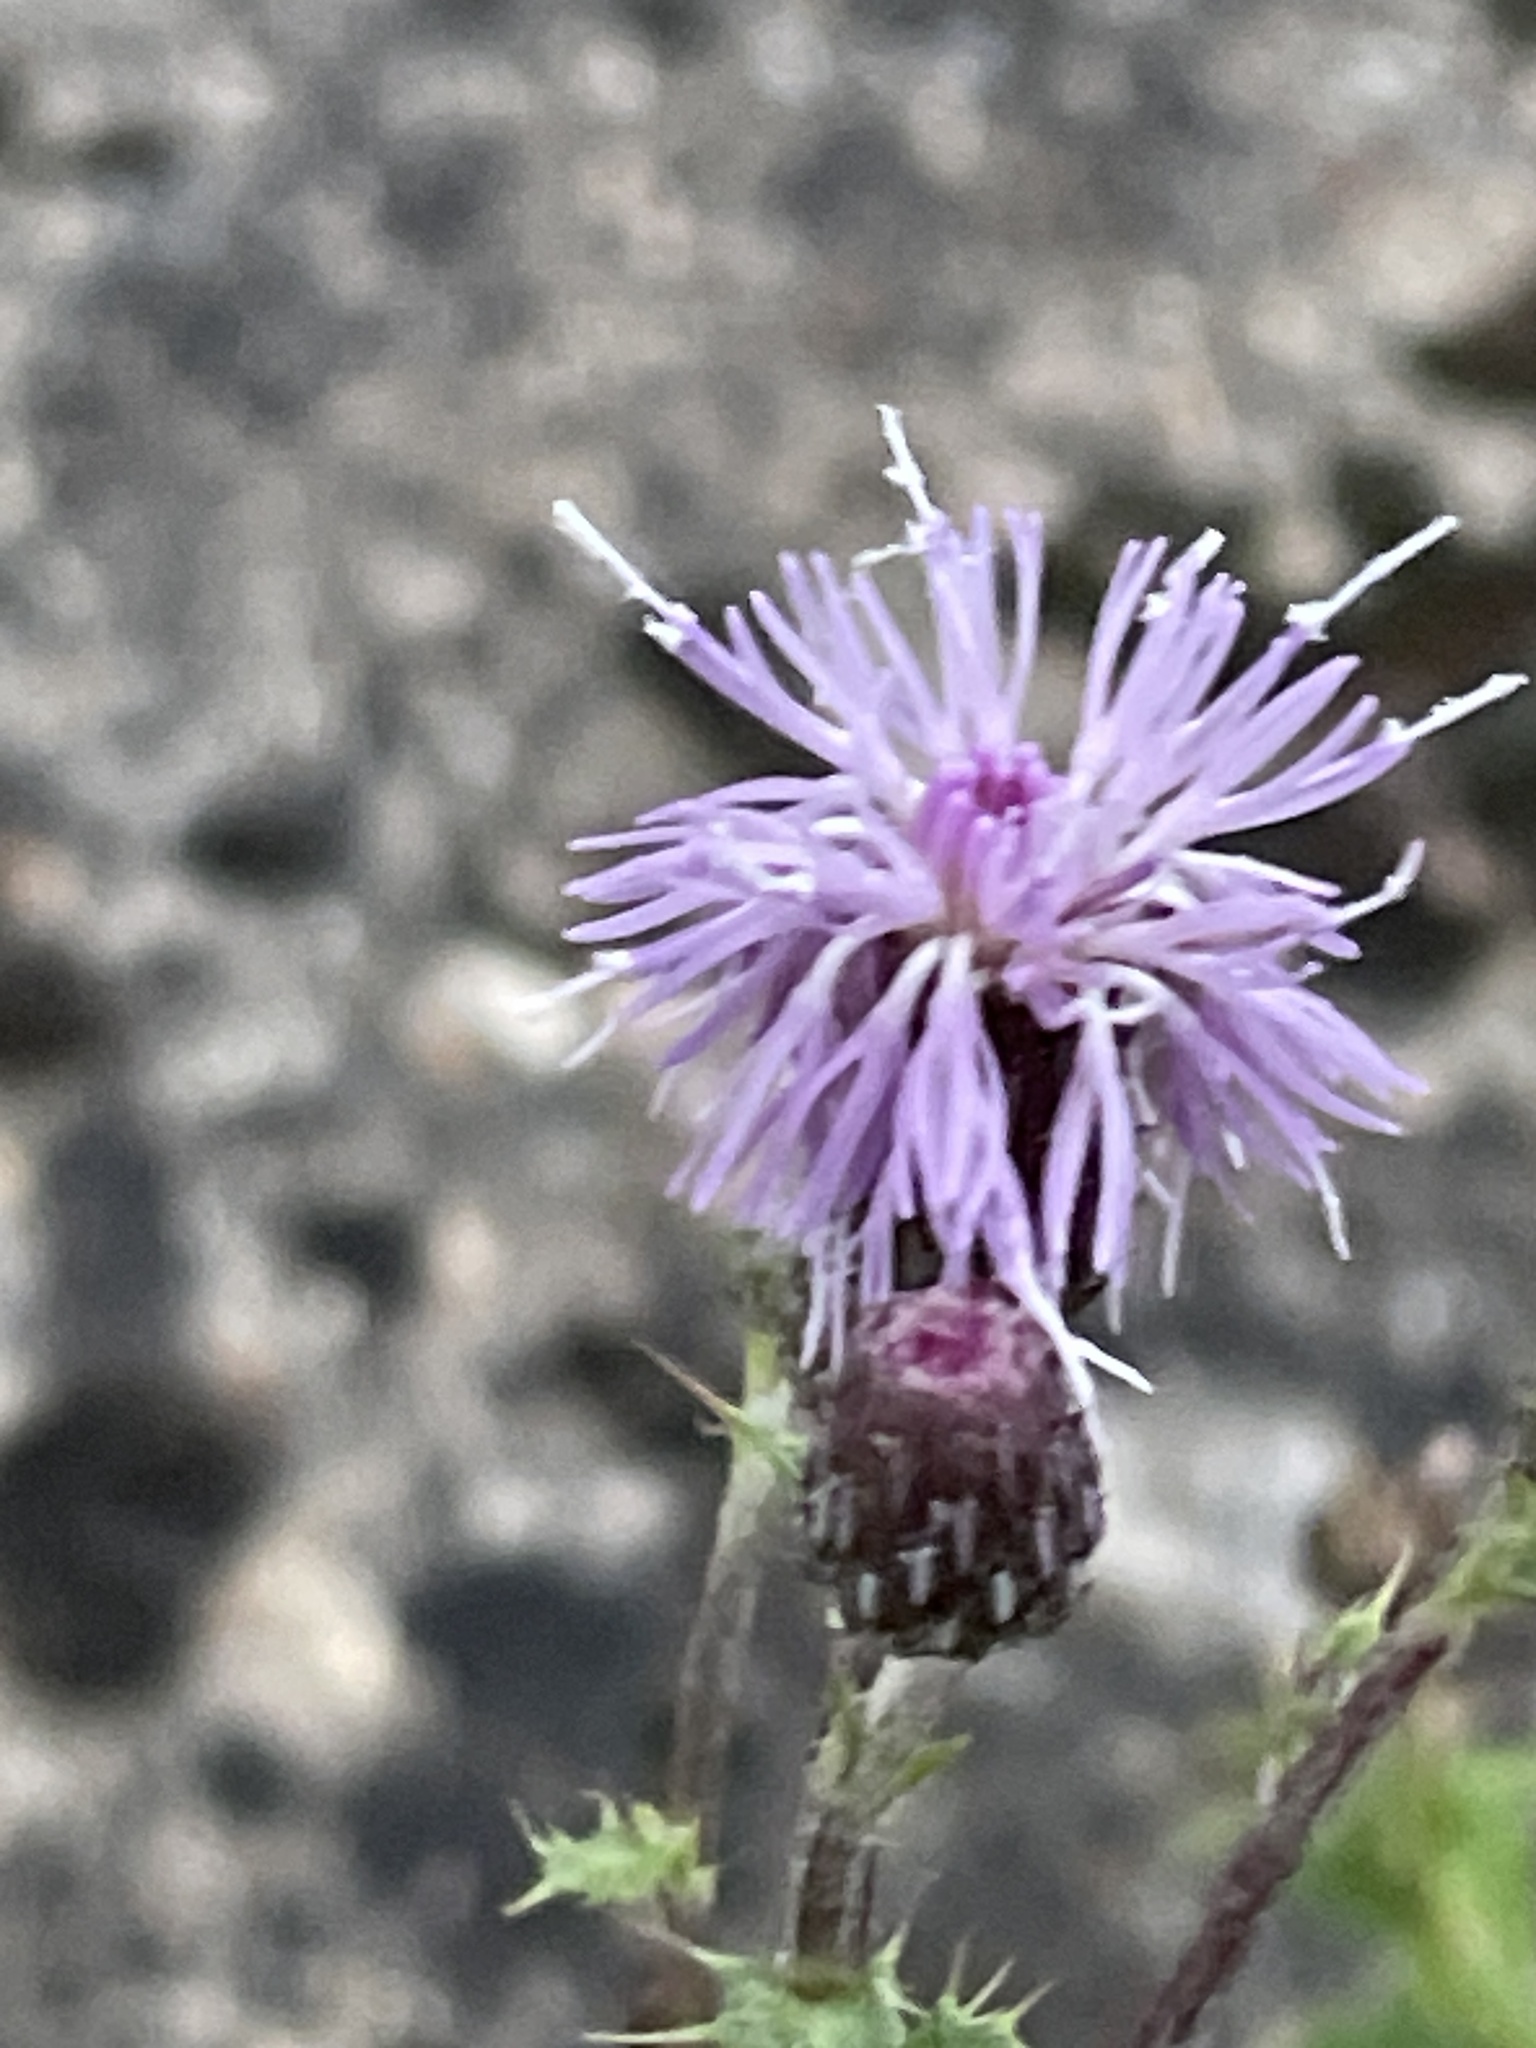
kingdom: Plantae
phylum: Tracheophyta
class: Magnoliopsida
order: Asterales
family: Asteraceae
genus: Cirsium
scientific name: Cirsium arvense
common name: Creeping thistle
